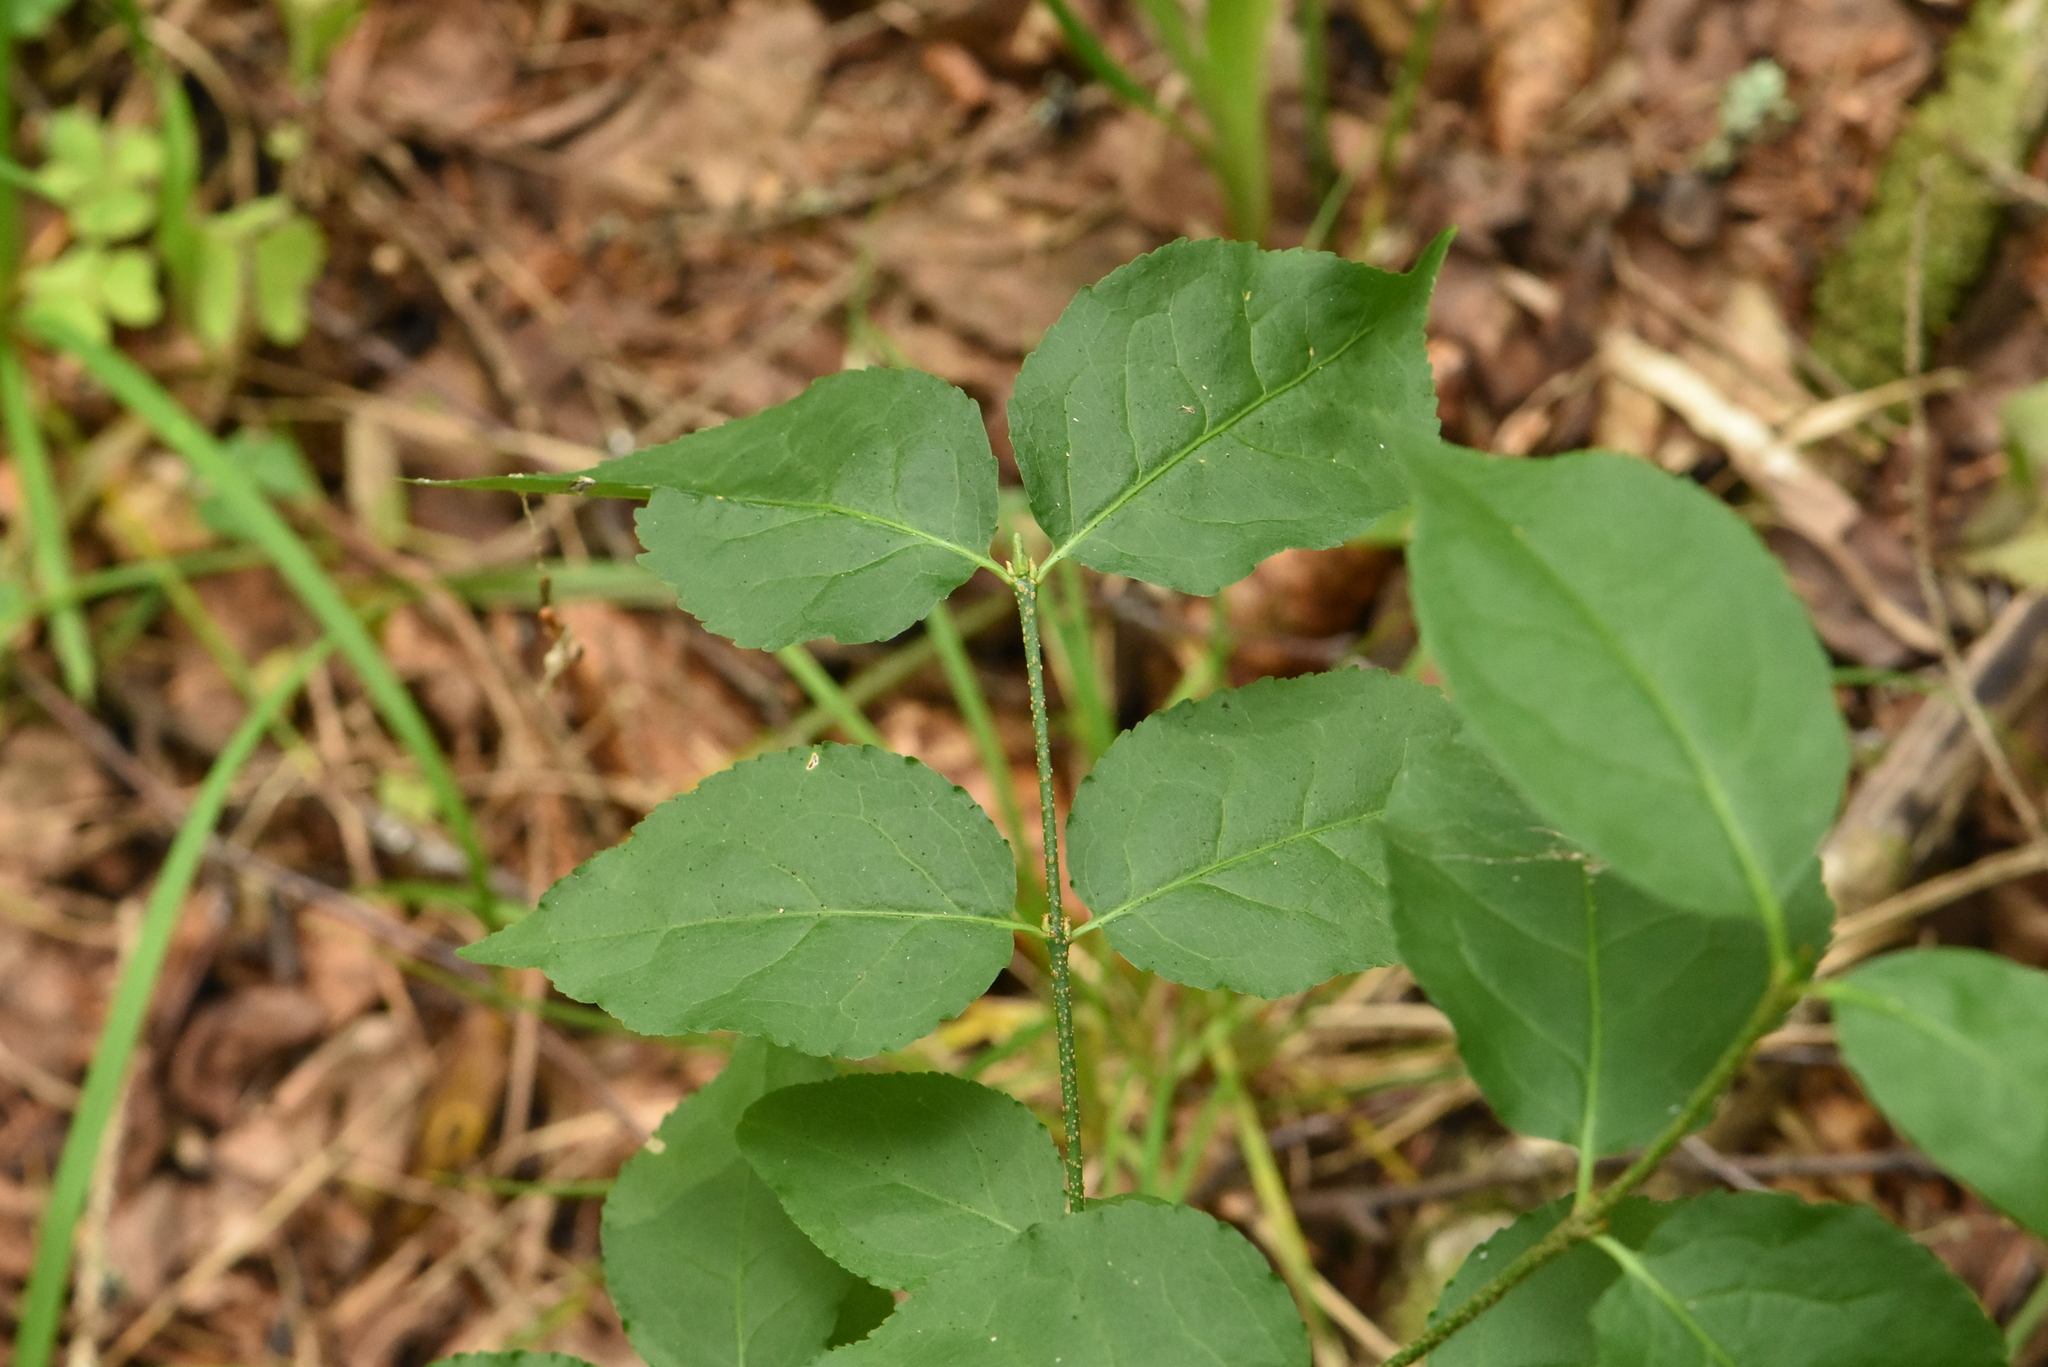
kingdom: Plantae
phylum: Tracheophyta
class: Magnoliopsida
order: Celastrales
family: Celastraceae
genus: Euonymus
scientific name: Euonymus verrucosus
